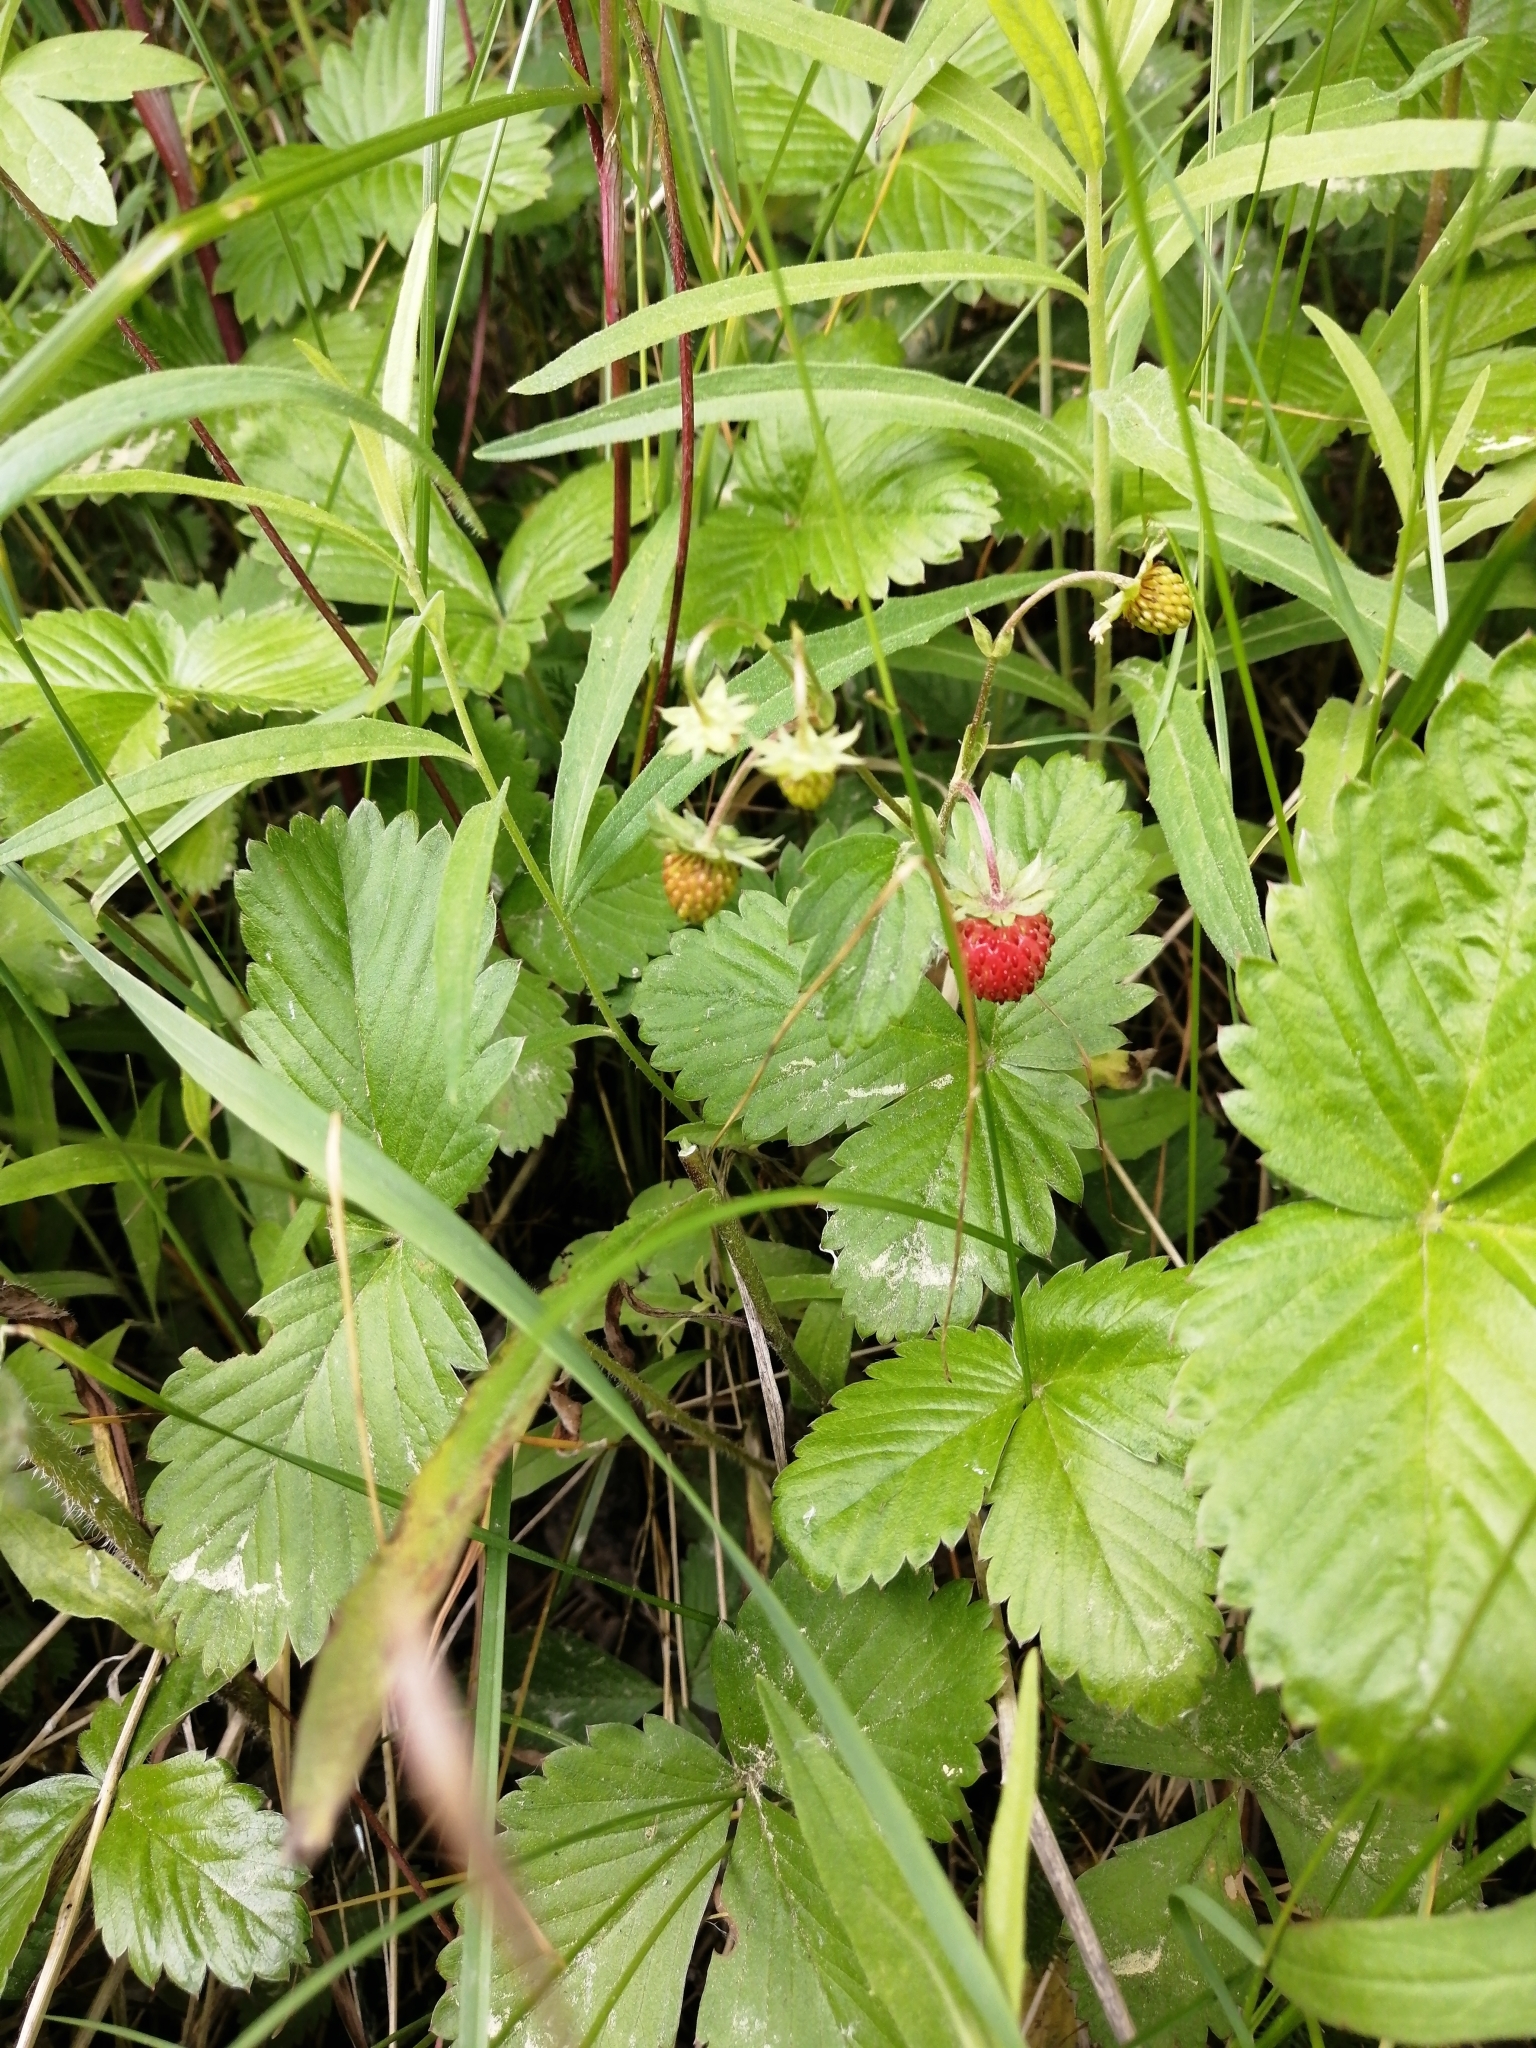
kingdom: Plantae
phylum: Tracheophyta
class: Magnoliopsida
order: Rosales
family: Rosaceae
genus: Fragaria
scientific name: Fragaria vesca
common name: Wild strawberry
